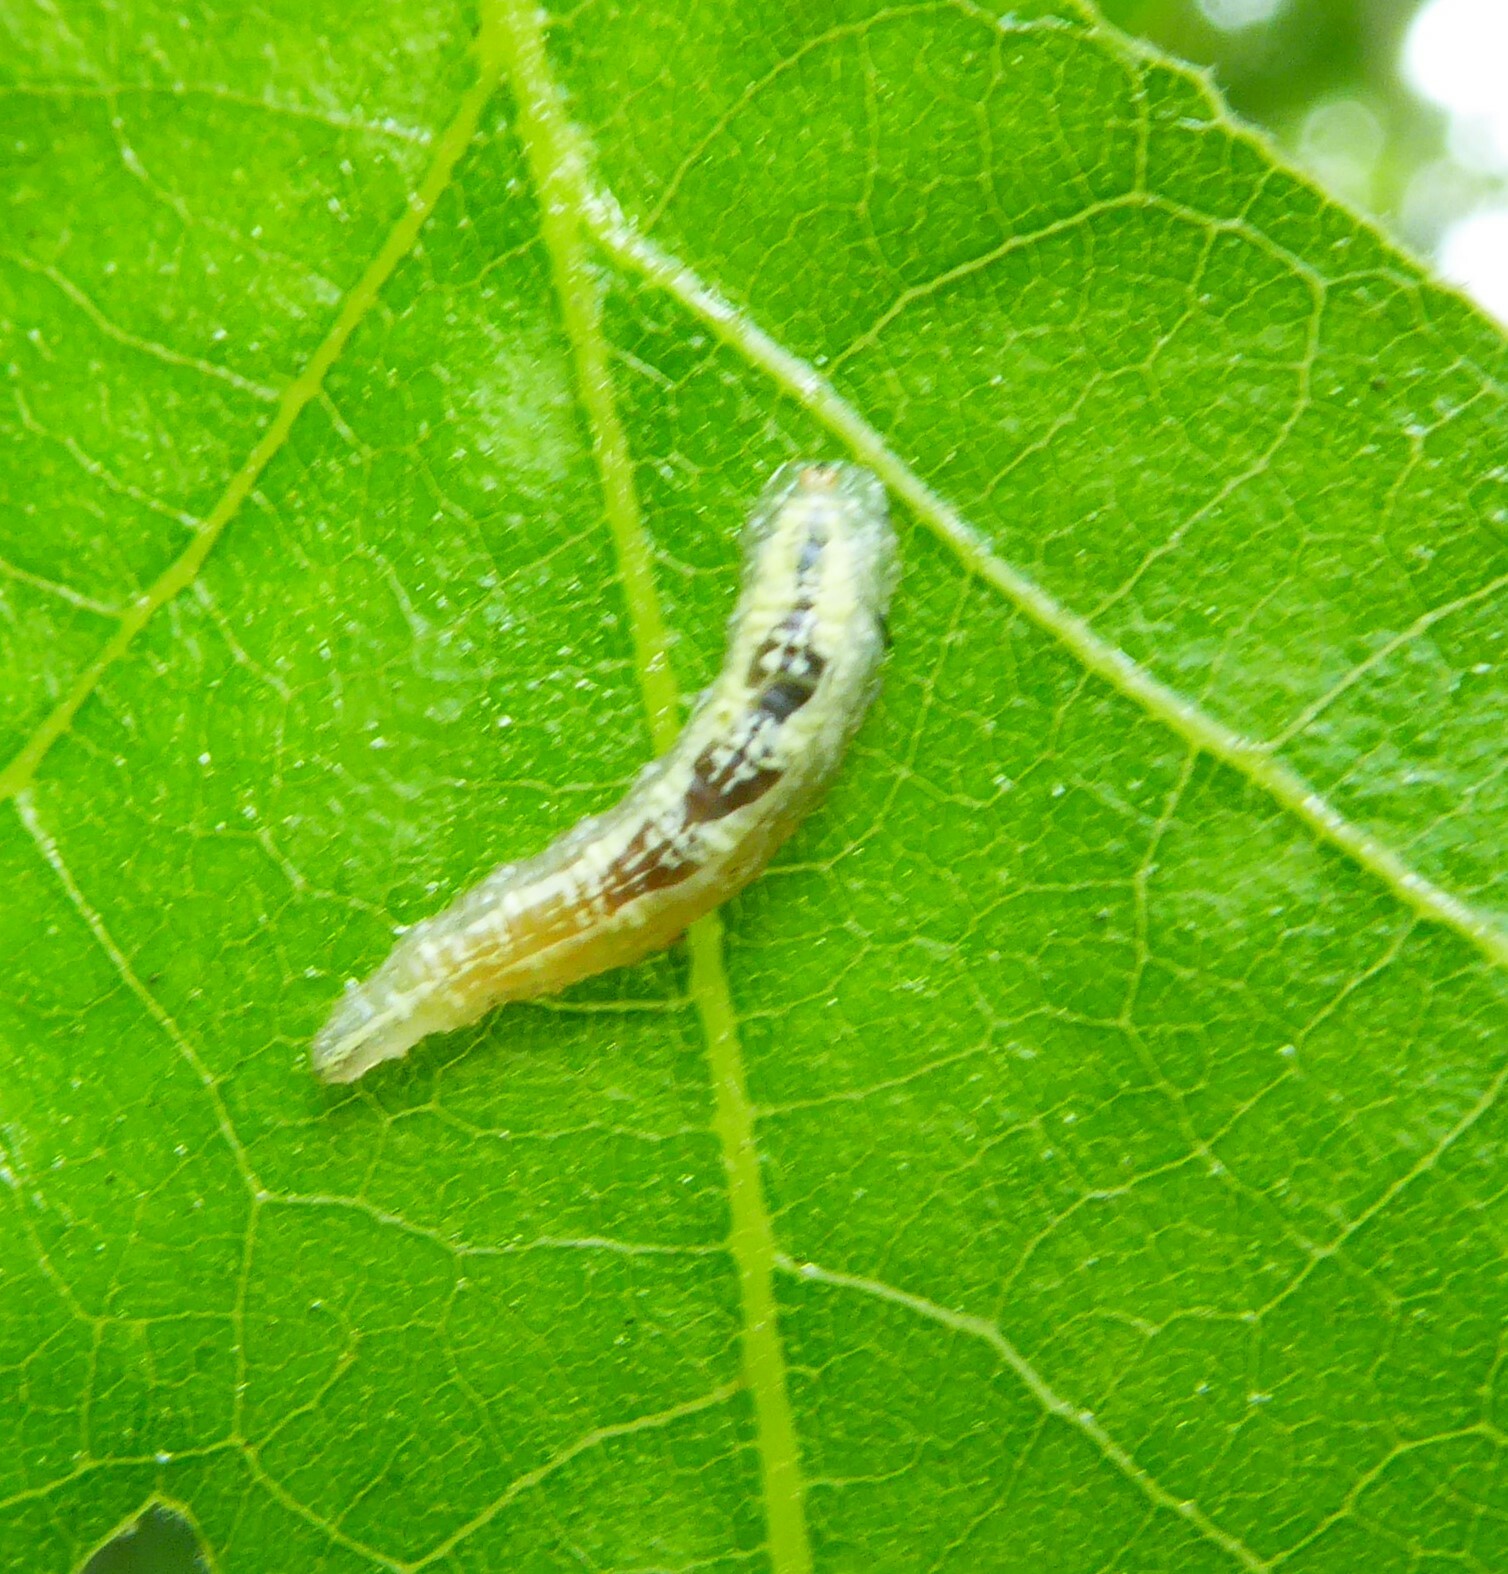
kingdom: Animalia
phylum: Arthropoda
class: Insecta
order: Diptera
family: Syrphidae
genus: Syrphus
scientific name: Syrphus
